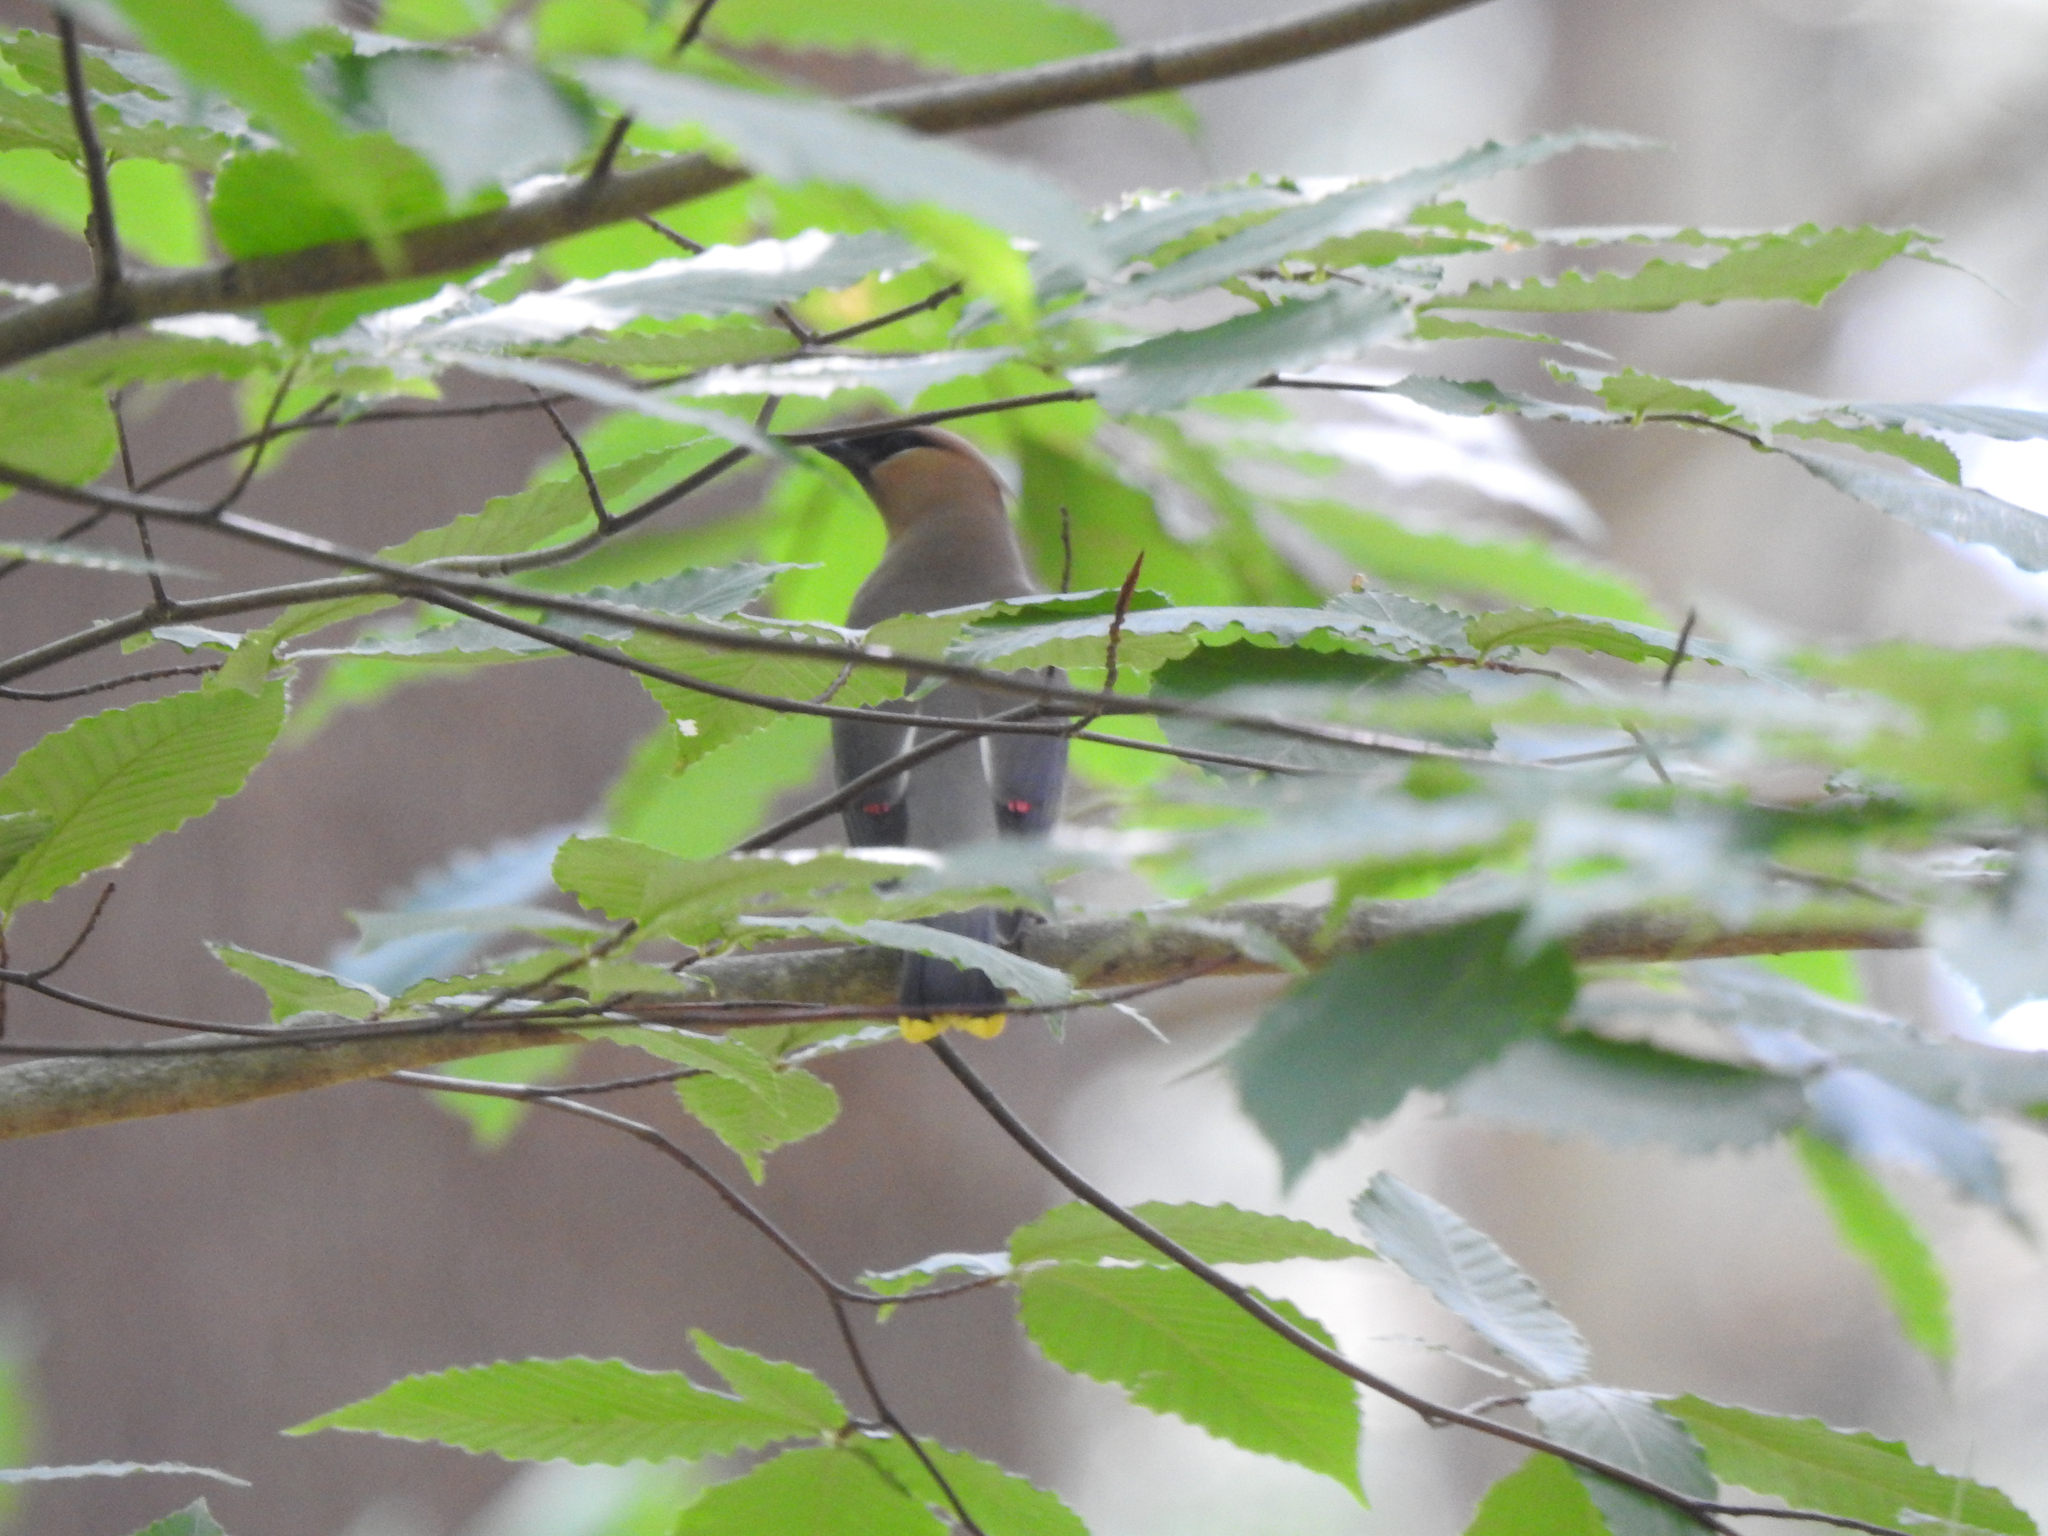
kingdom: Animalia
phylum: Chordata
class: Aves
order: Passeriformes
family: Bombycillidae
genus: Bombycilla
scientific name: Bombycilla cedrorum
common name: Cedar waxwing
